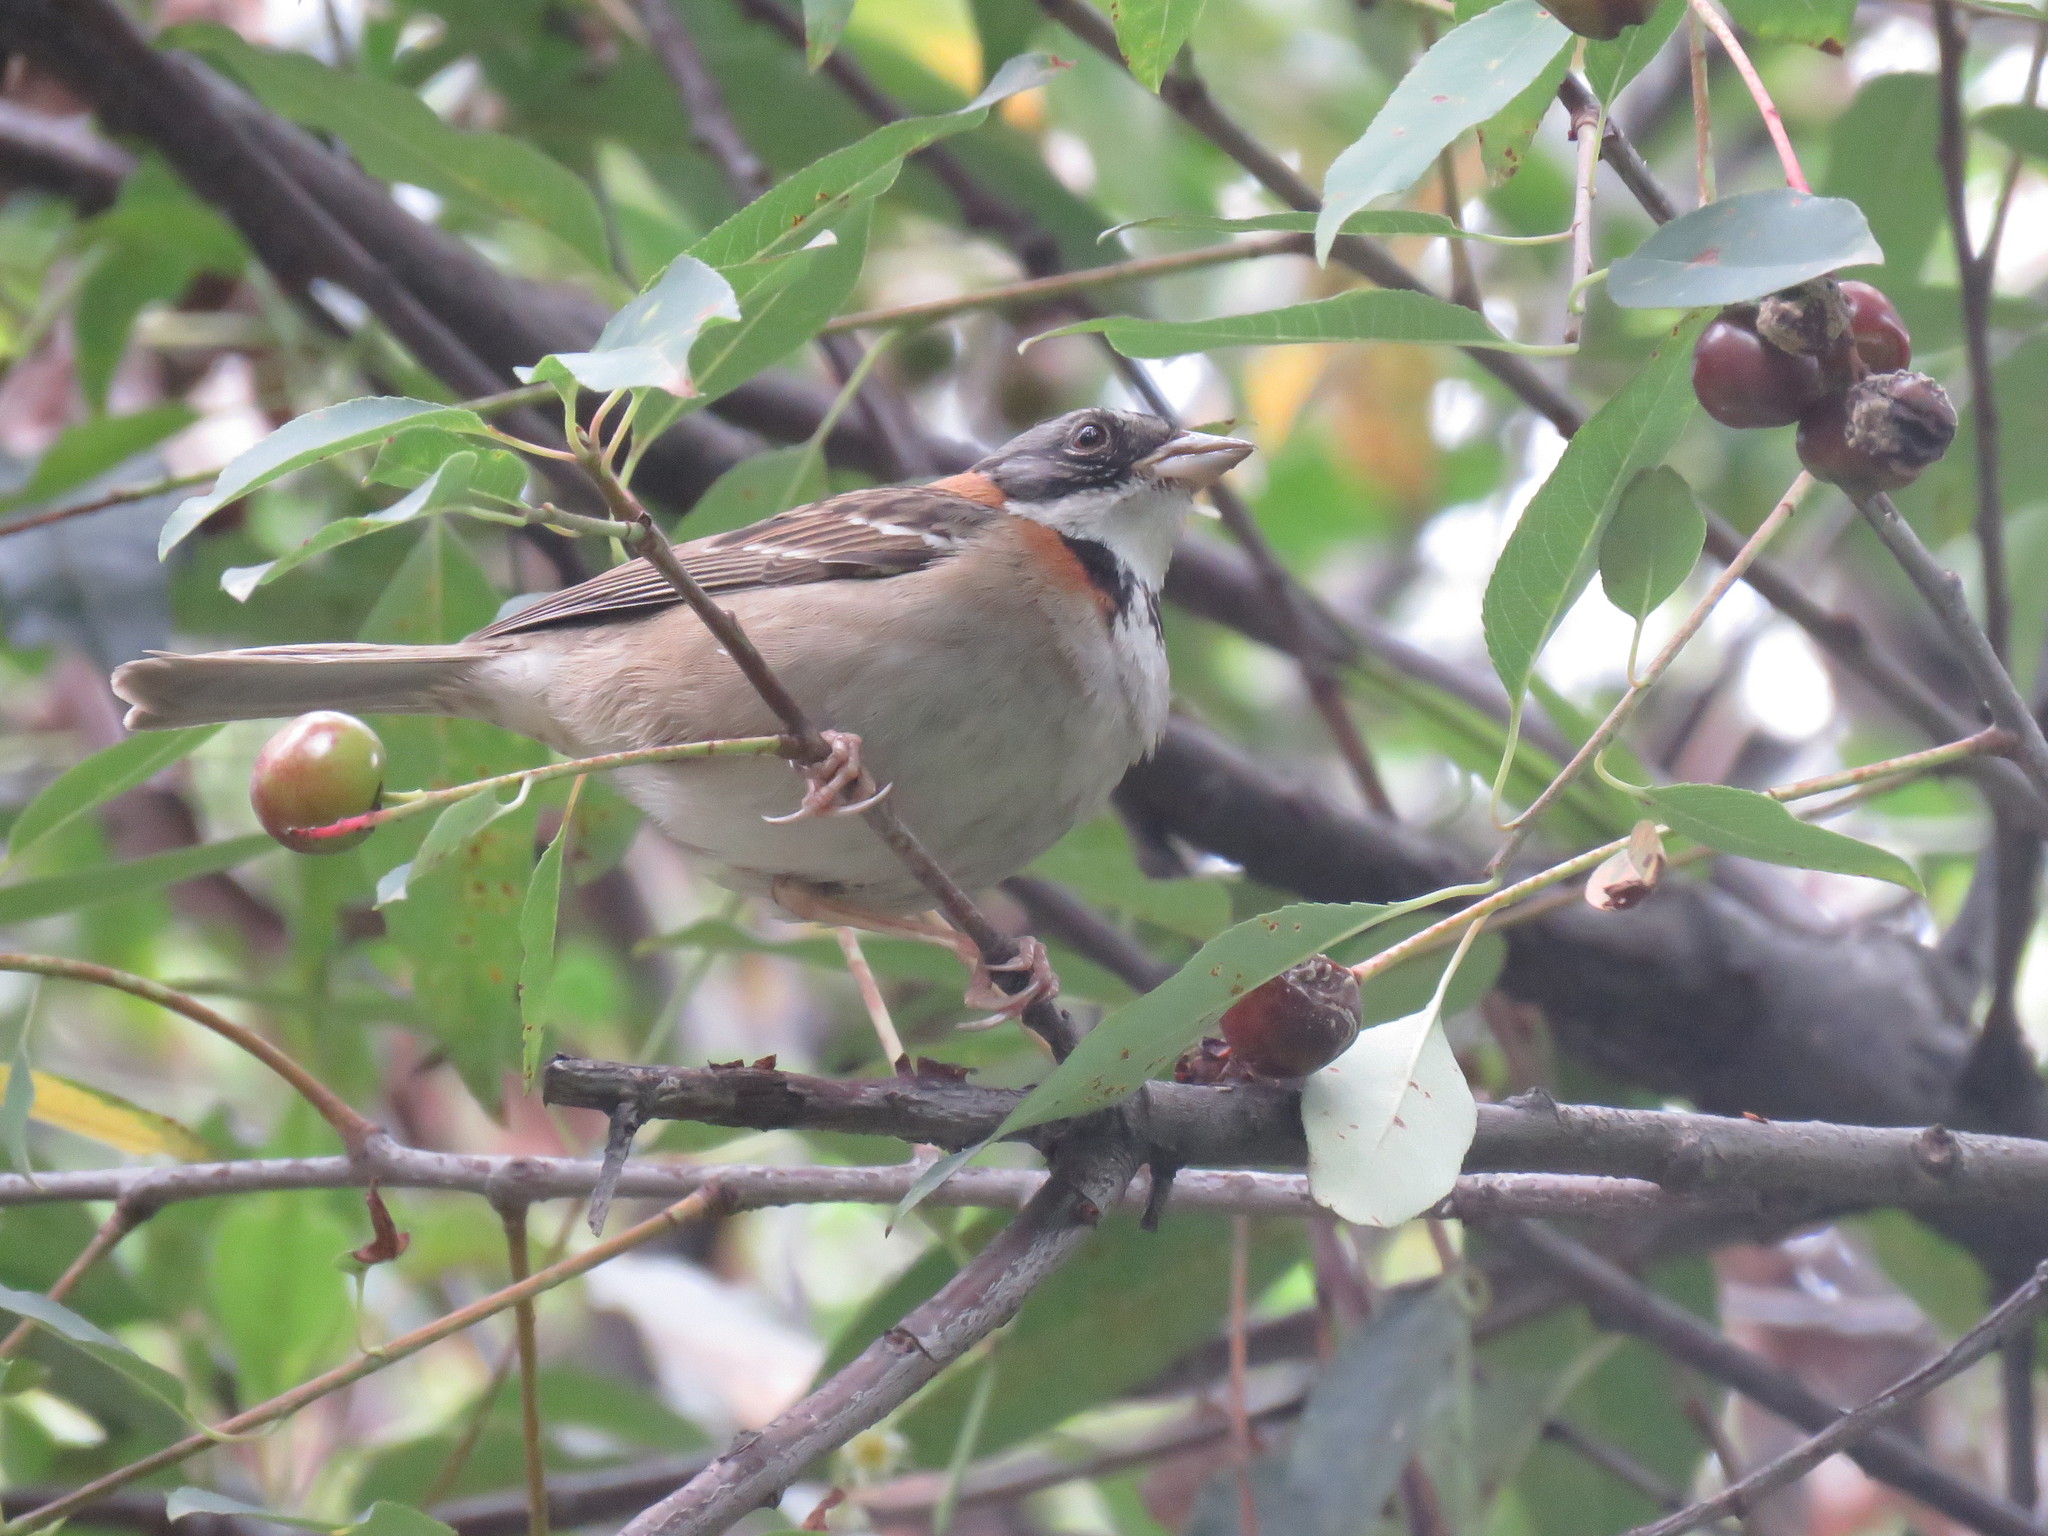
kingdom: Animalia
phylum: Chordata
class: Aves
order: Passeriformes
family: Passerellidae
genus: Zonotrichia
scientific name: Zonotrichia capensis
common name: Rufous-collared sparrow
